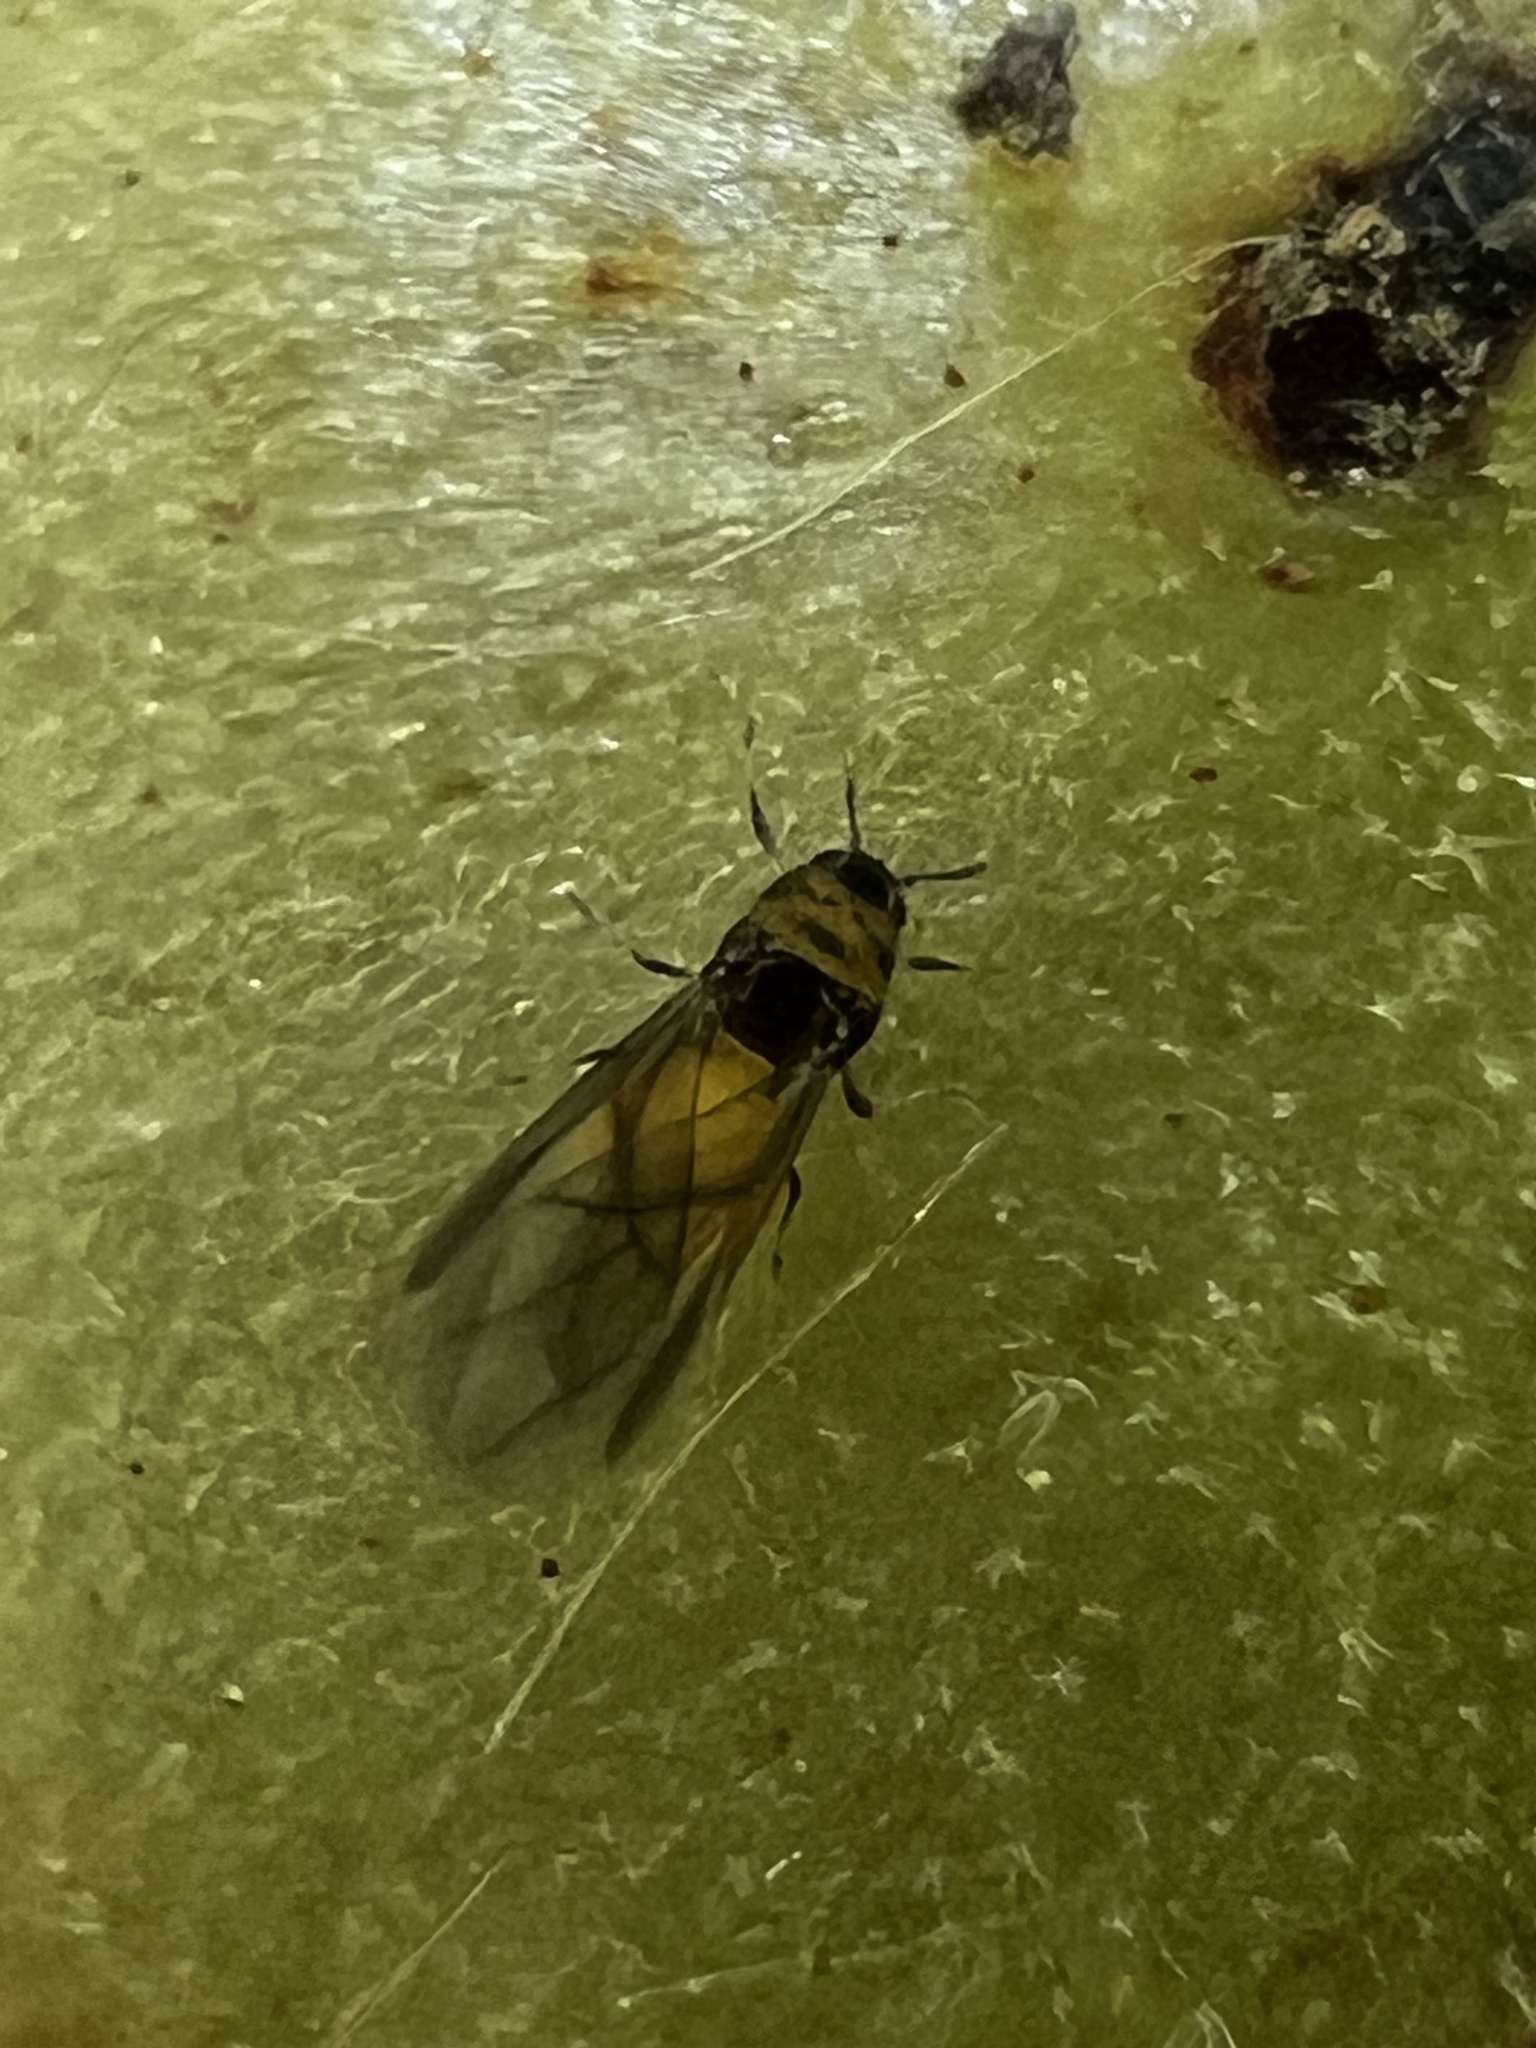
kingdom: Animalia
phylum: Arthropoda
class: Insecta
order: Hemiptera
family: Phylloxeridae
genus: Phylloxera
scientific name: Phylloxera
